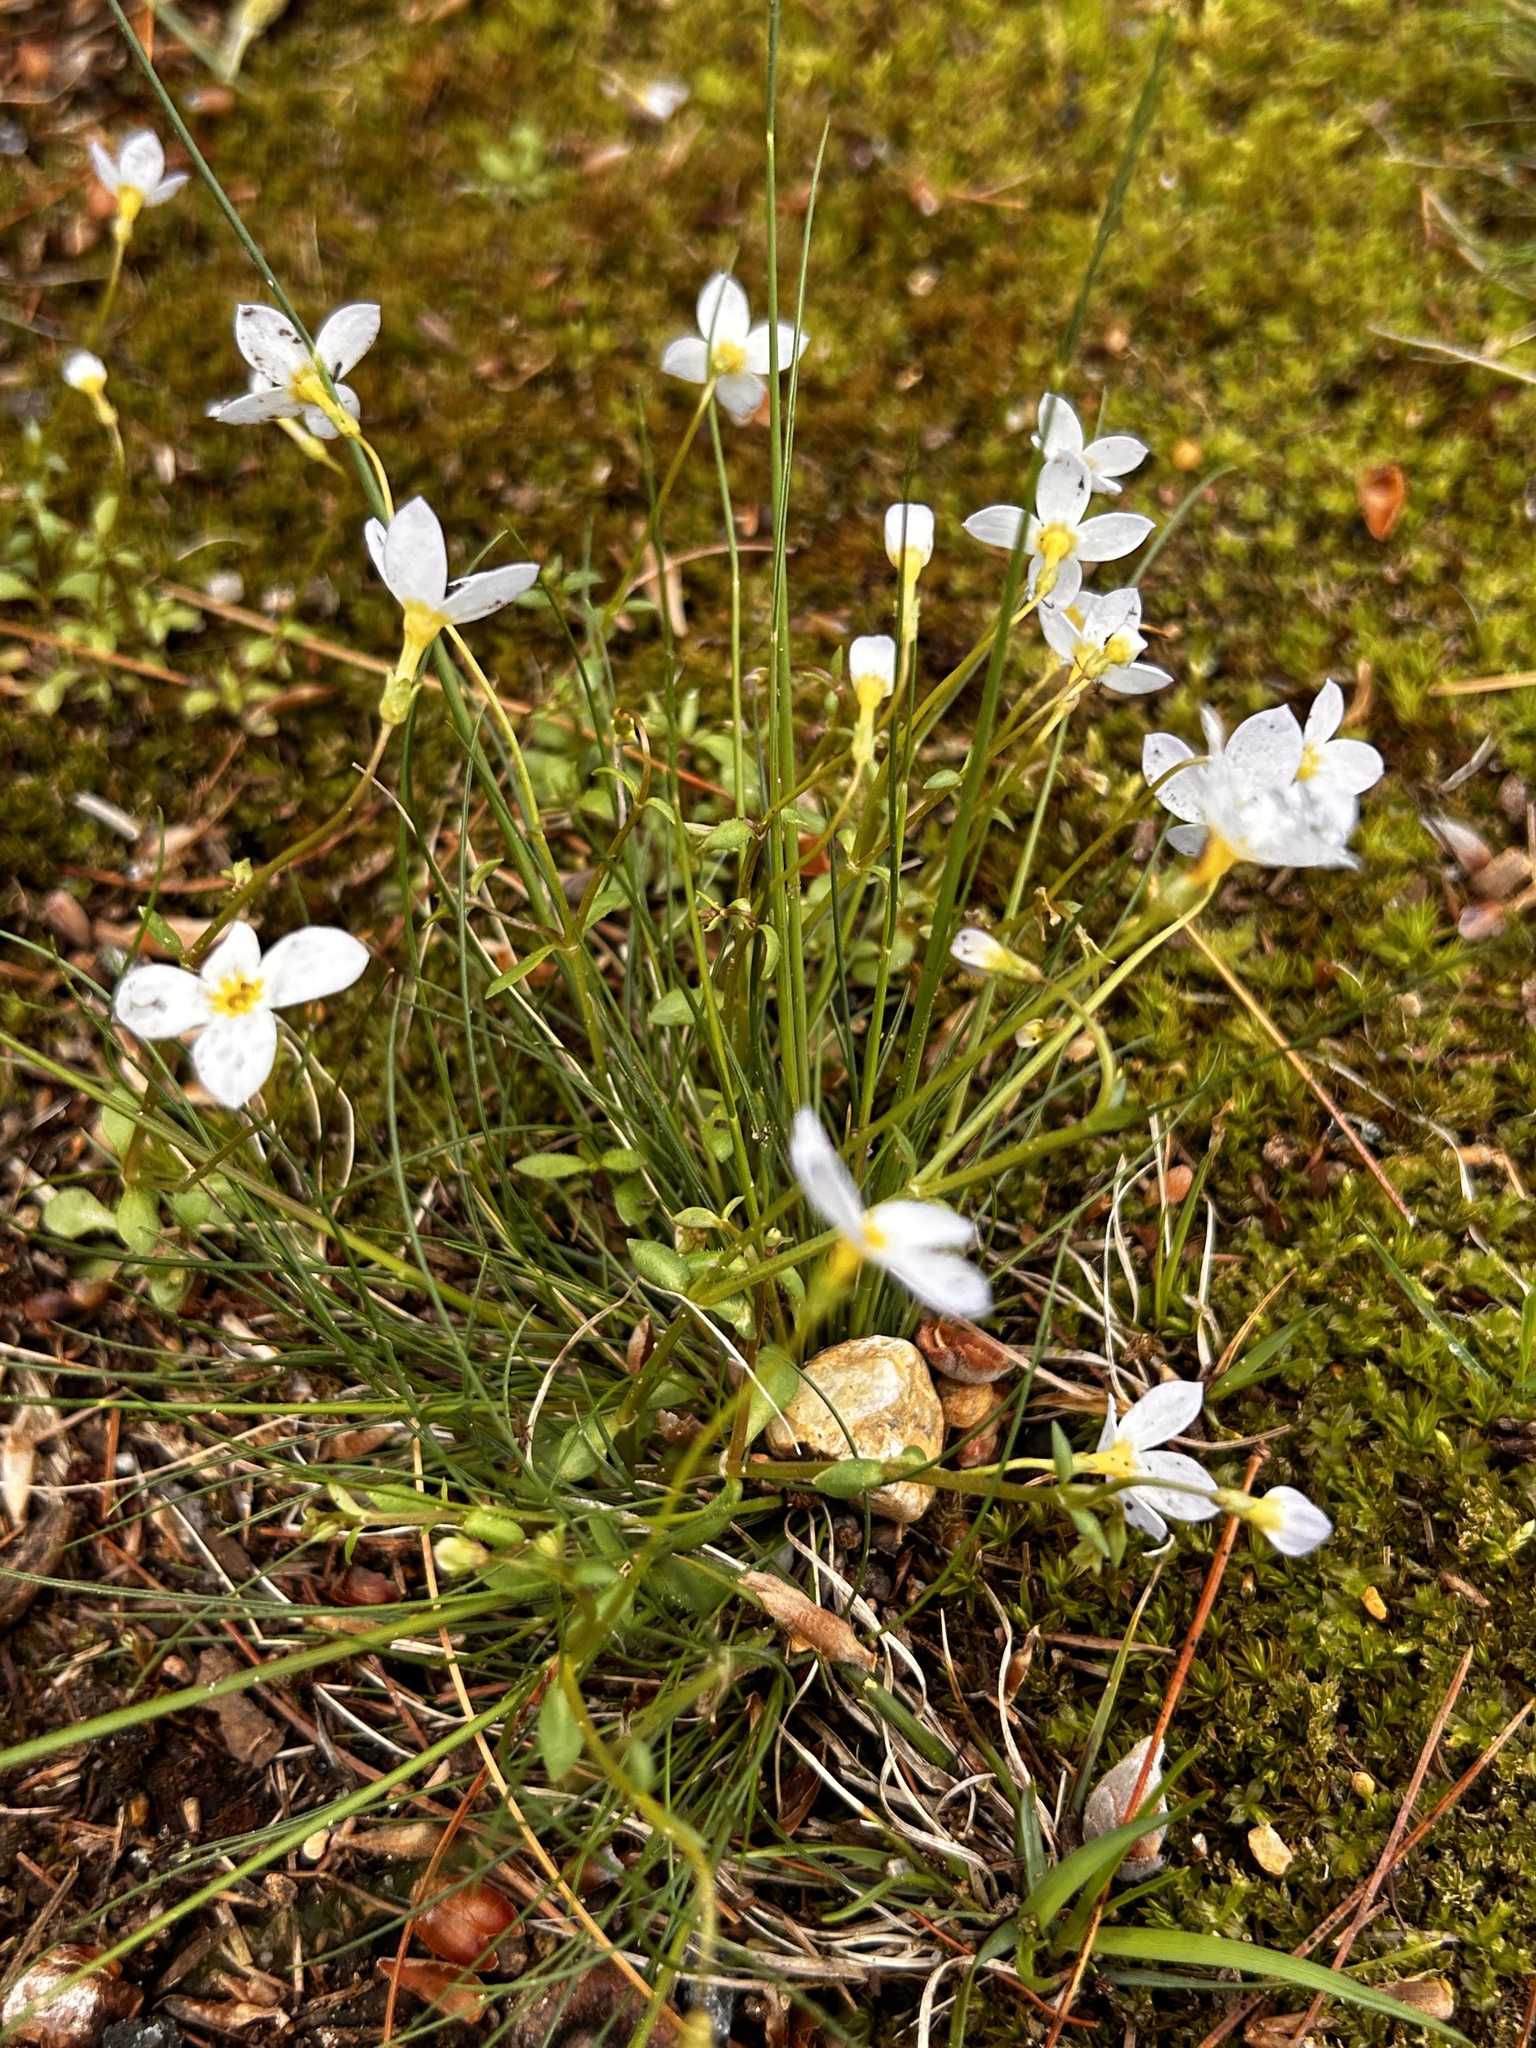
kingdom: Plantae
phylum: Tracheophyta
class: Magnoliopsida
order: Gentianales
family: Rubiaceae
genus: Houstonia
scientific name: Houstonia caerulea
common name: Bluets
